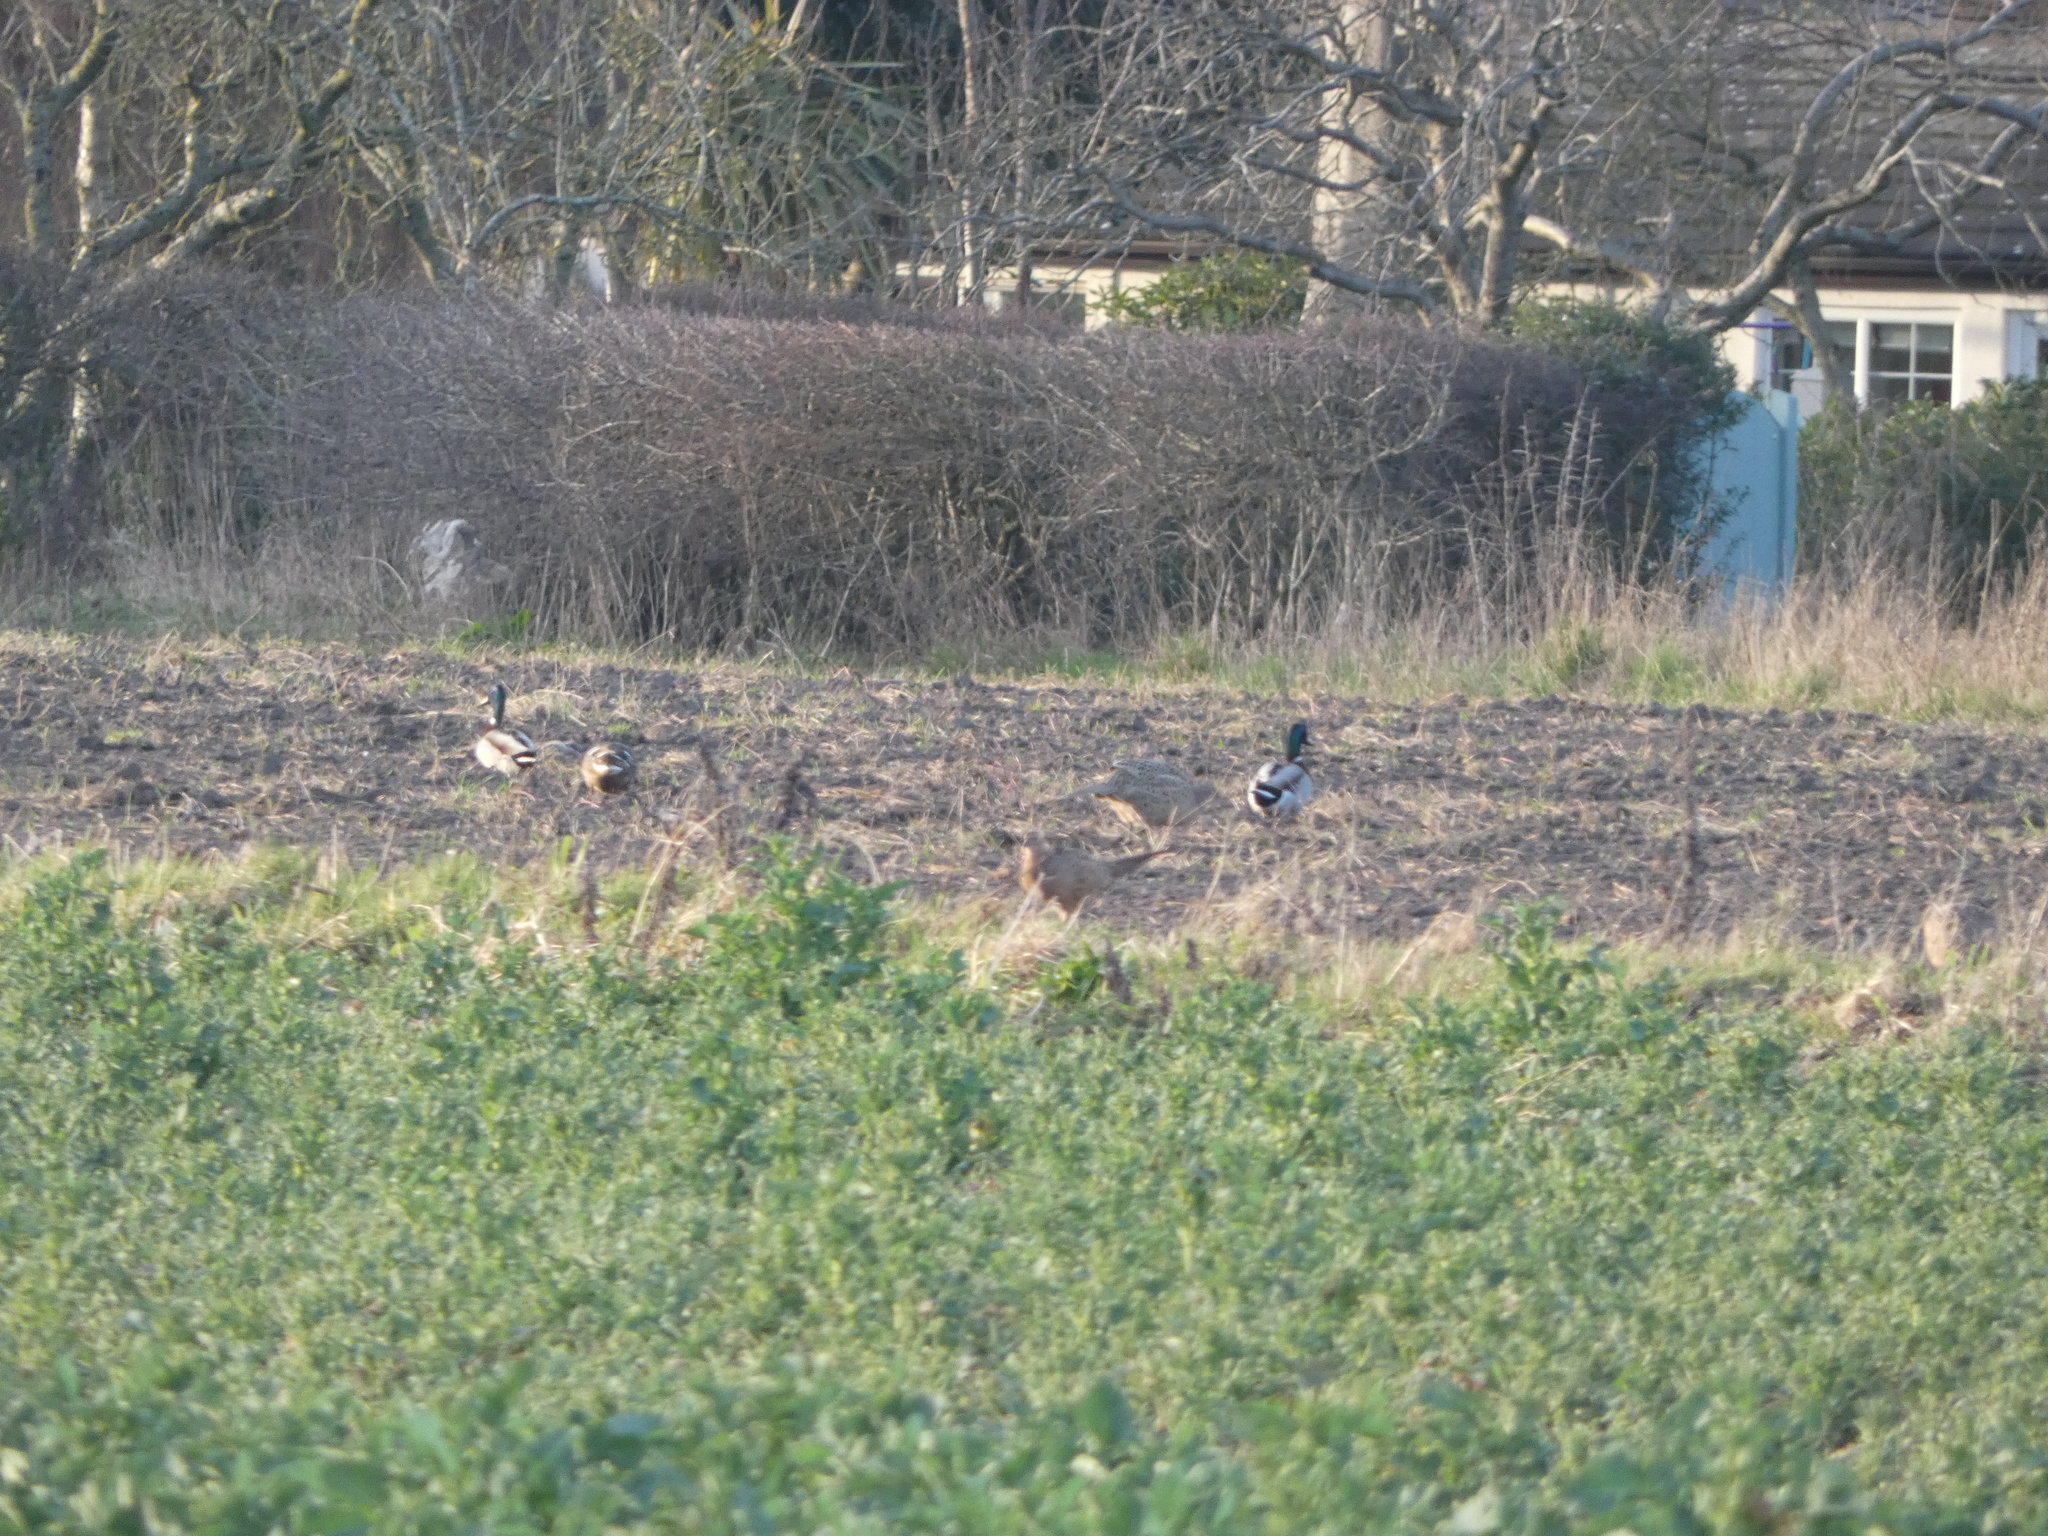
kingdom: Animalia
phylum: Chordata
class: Aves
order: Anseriformes
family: Anatidae
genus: Anas
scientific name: Anas platyrhynchos
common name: Mallard
